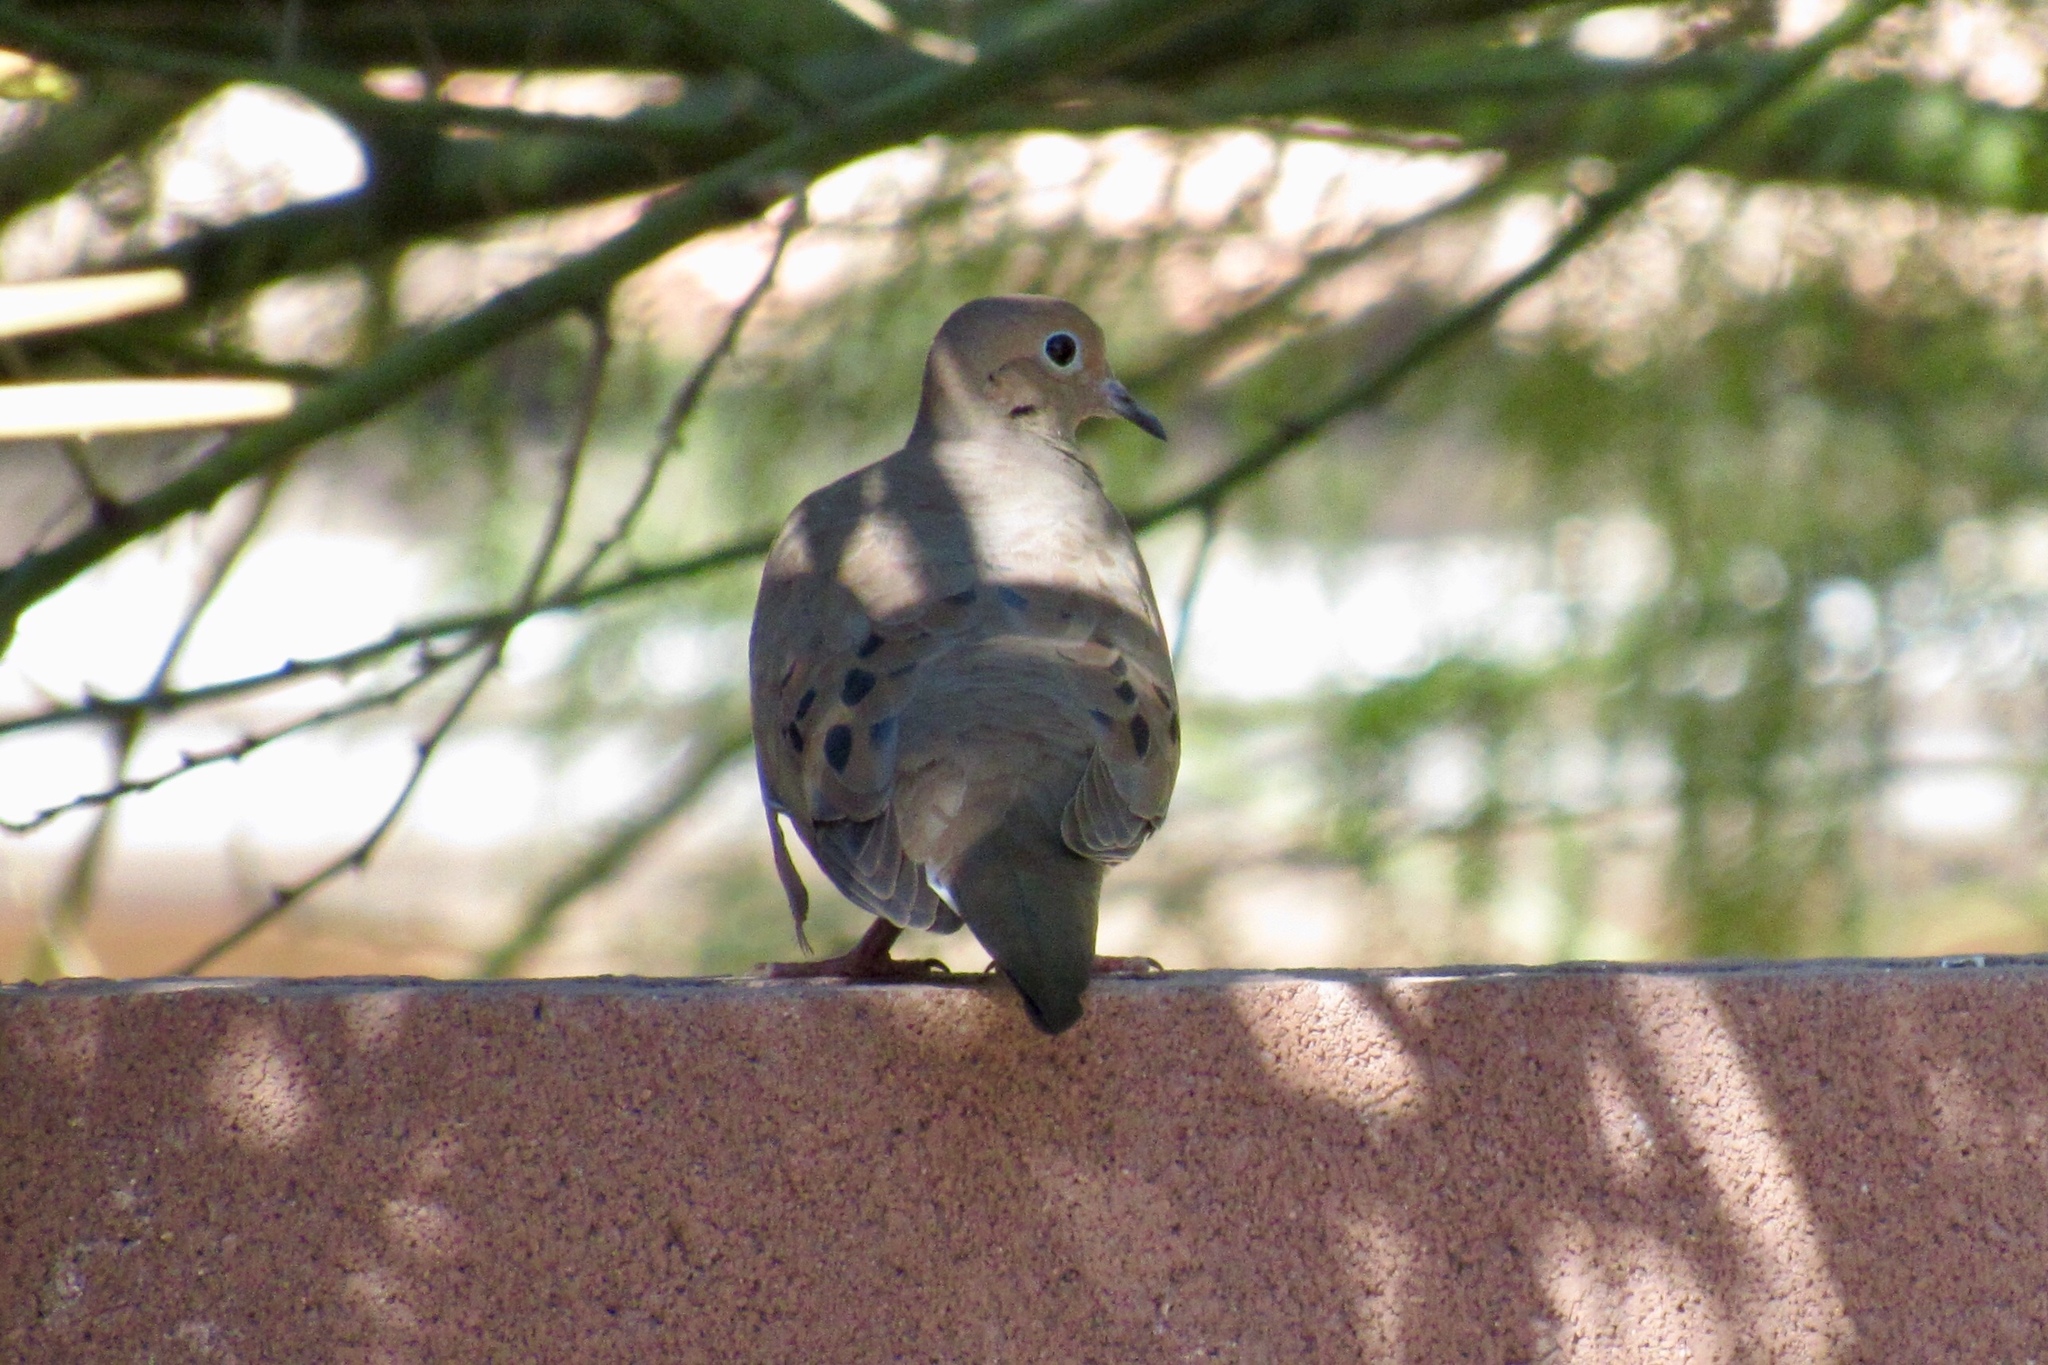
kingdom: Animalia
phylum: Chordata
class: Aves
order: Columbiformes
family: Columbidae
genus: Zenaida
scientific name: Zenaida macroura
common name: Mourning dove
